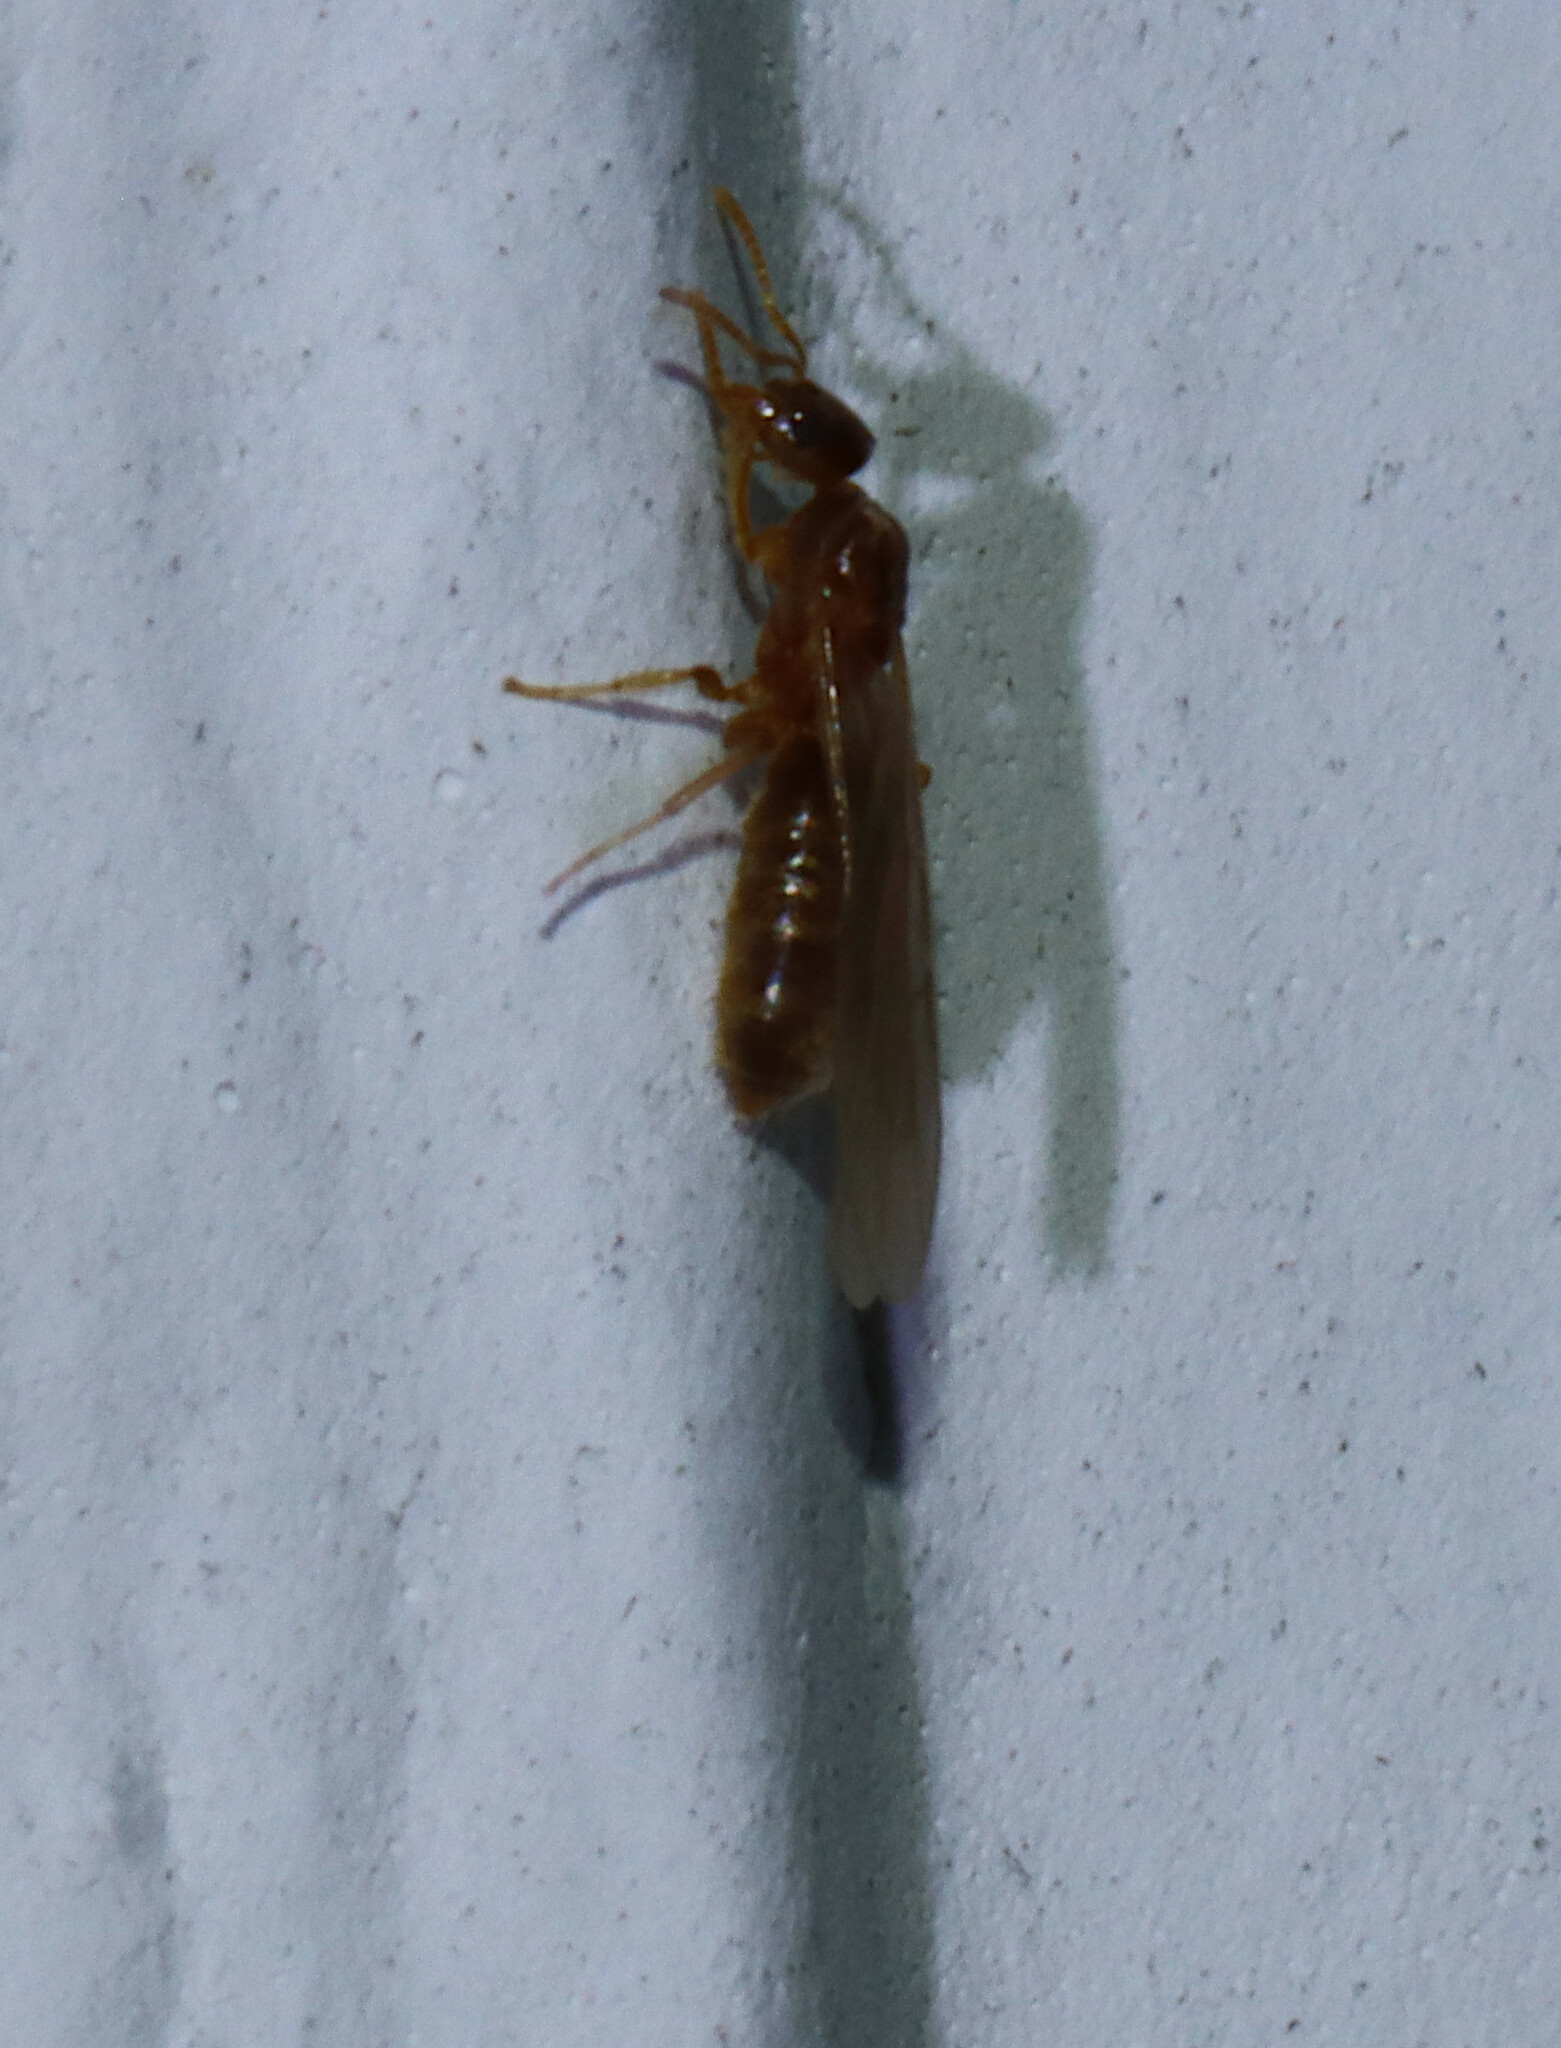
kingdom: Animalia
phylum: Arthropoda
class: Insecta
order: Hymenoptera
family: Formicidae
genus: Brachymyrmex
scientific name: Brachymyrmex depilis
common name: Hairless rover ant
